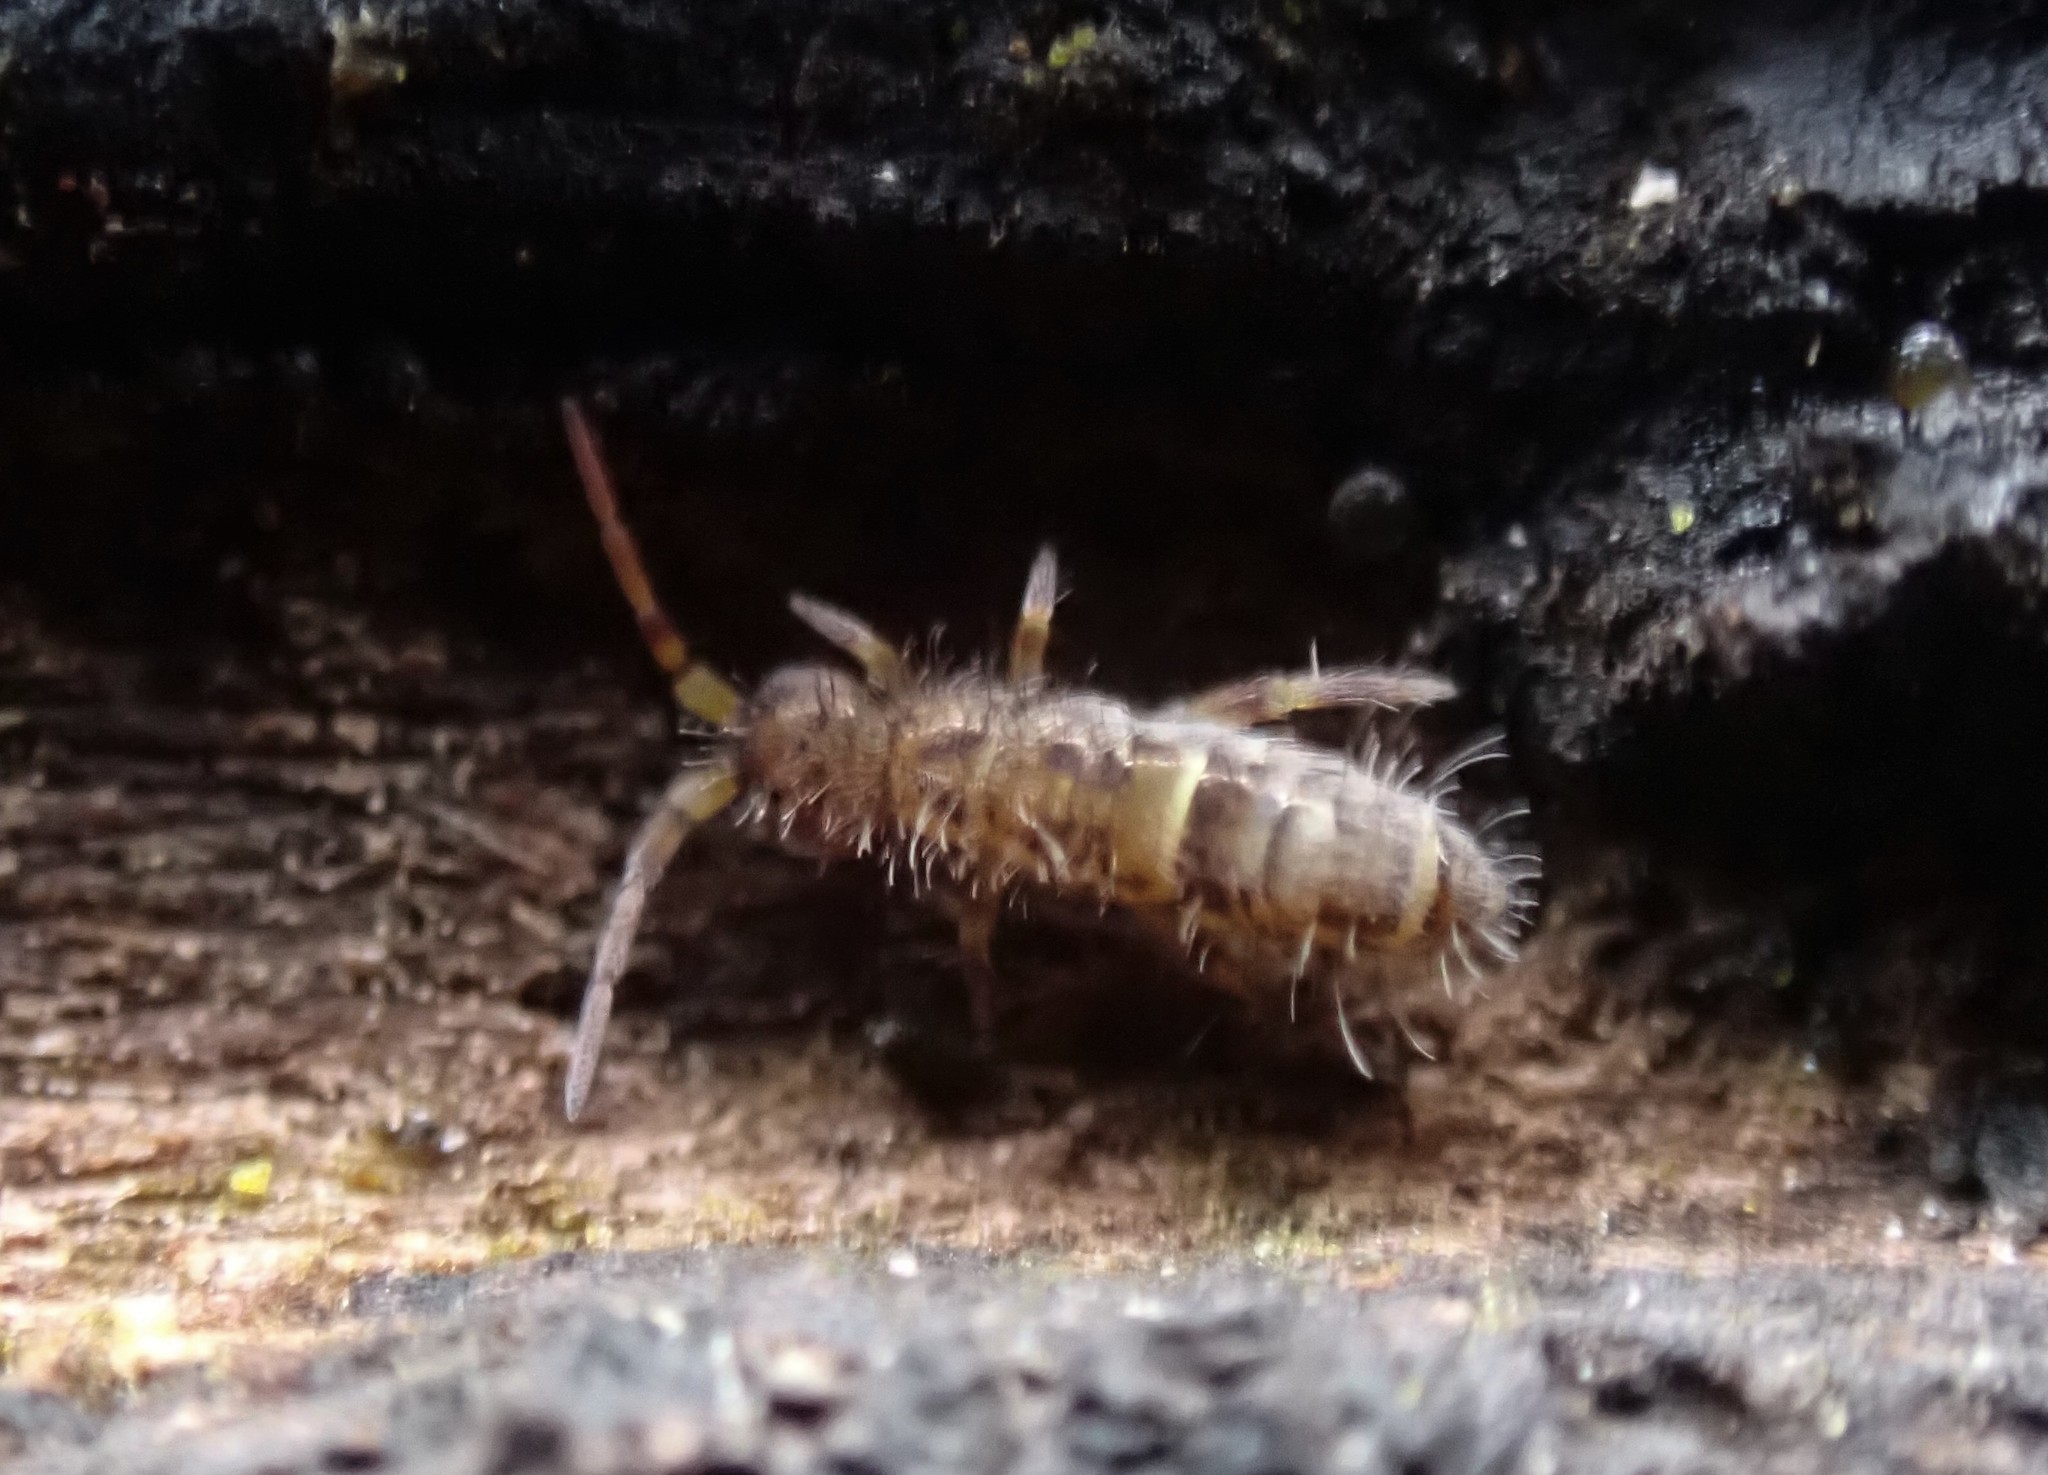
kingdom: Animalia
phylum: Arthropoda
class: Collembola
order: Entomobryomorpha
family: Orchesellidae
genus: Orchesella
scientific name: Orchesella cincta
